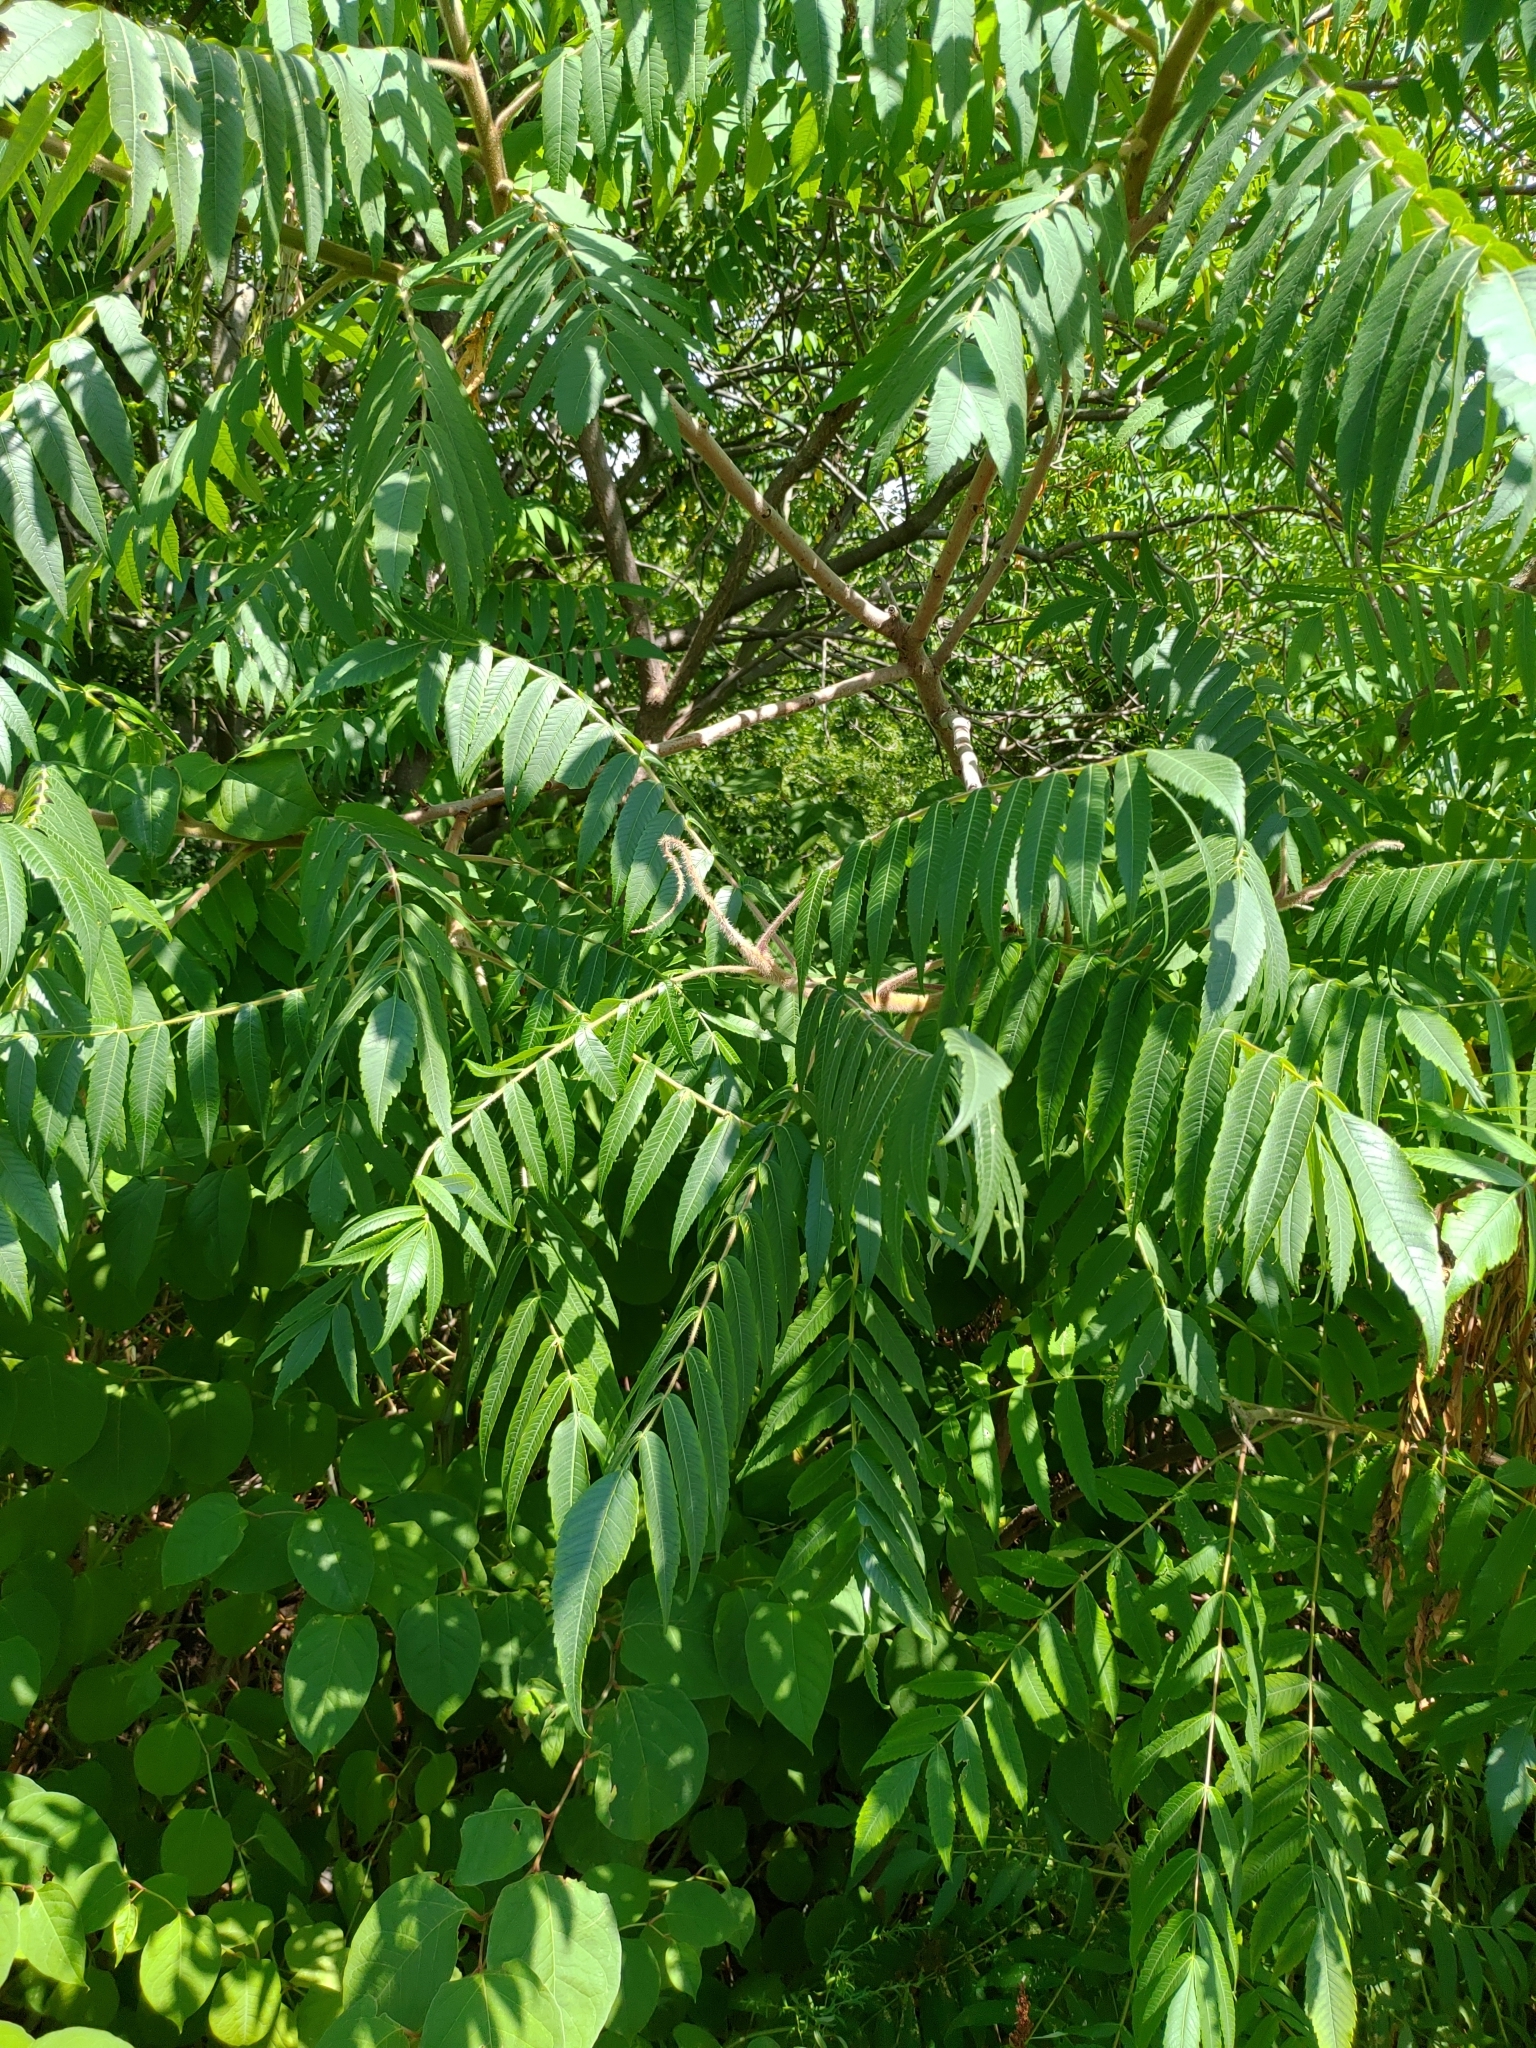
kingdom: Plantae
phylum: Tracheophyta
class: Magnoliopsida
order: Sapindales
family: Anacardiaceae
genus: Rhus
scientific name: Rhus typhina
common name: Staghorn sumac
